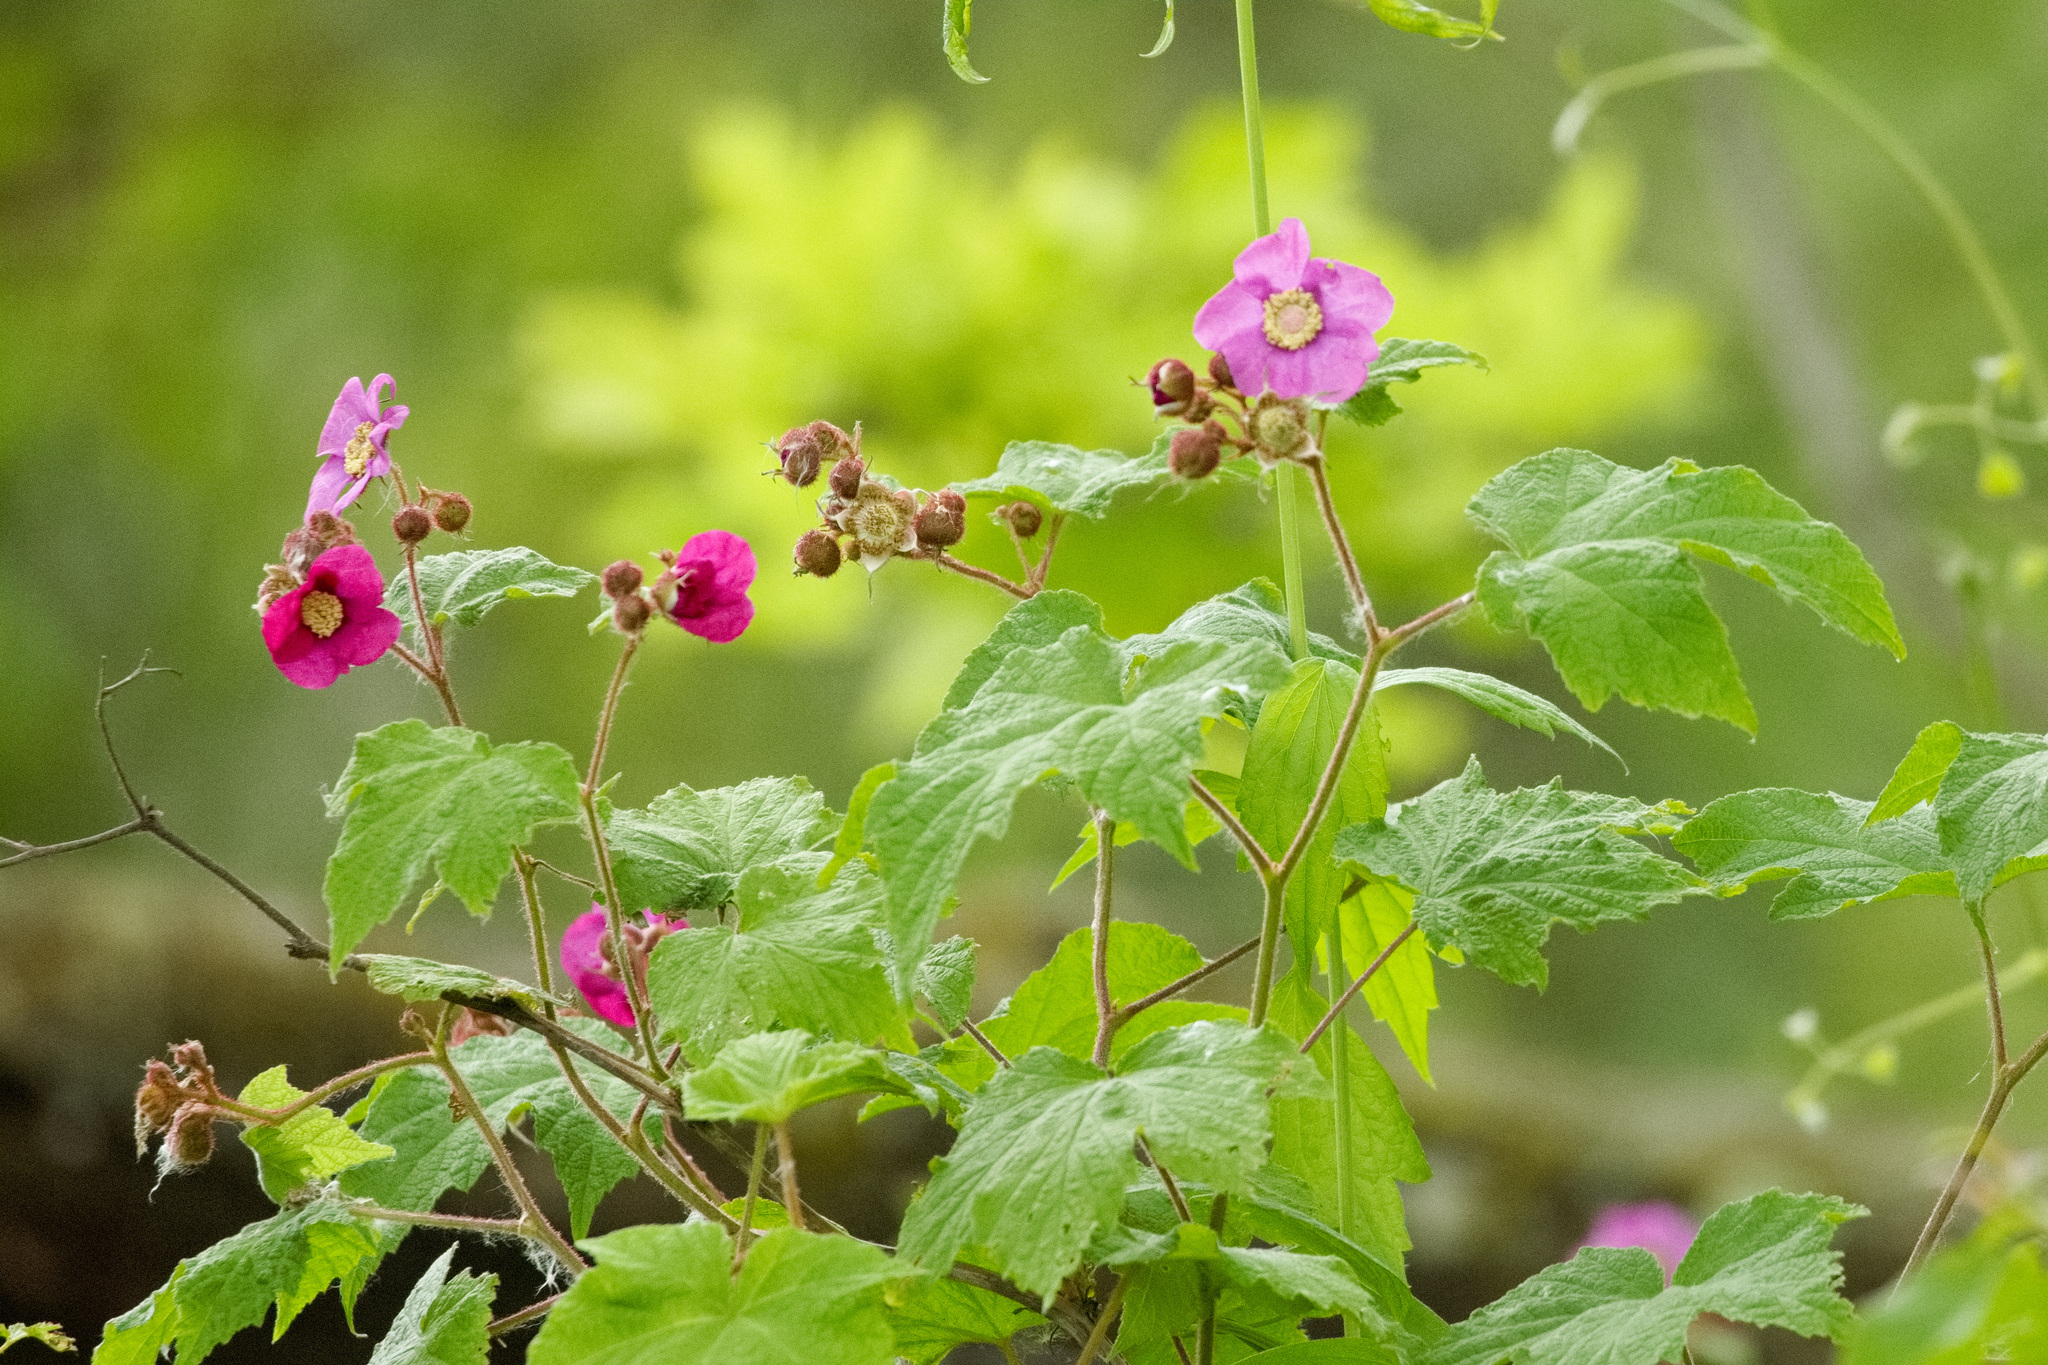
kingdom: Plantae
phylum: Tracheophyta
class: Magnoliopsida
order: Rosales
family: Rosaceae
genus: Rubus
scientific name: Rubus odoratus
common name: Purple-flowered raspberry
